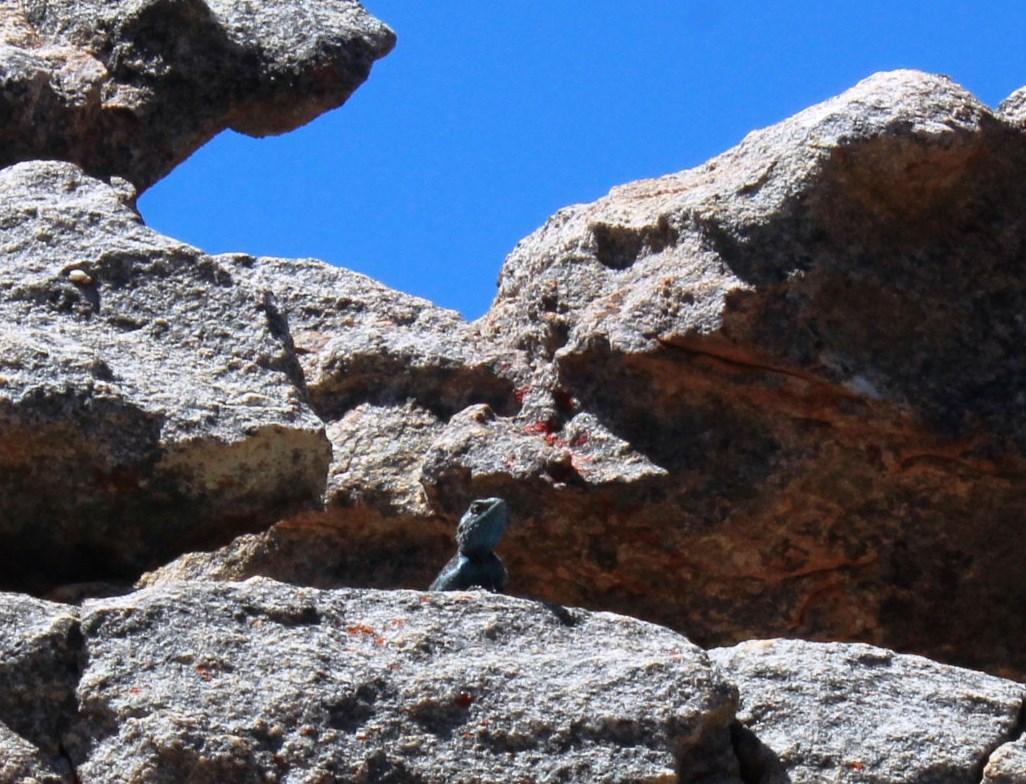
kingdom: Animalia
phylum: Chordata
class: Squamata
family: Agamidae
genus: Agama
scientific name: Agama atra
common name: Southern african rock agama
